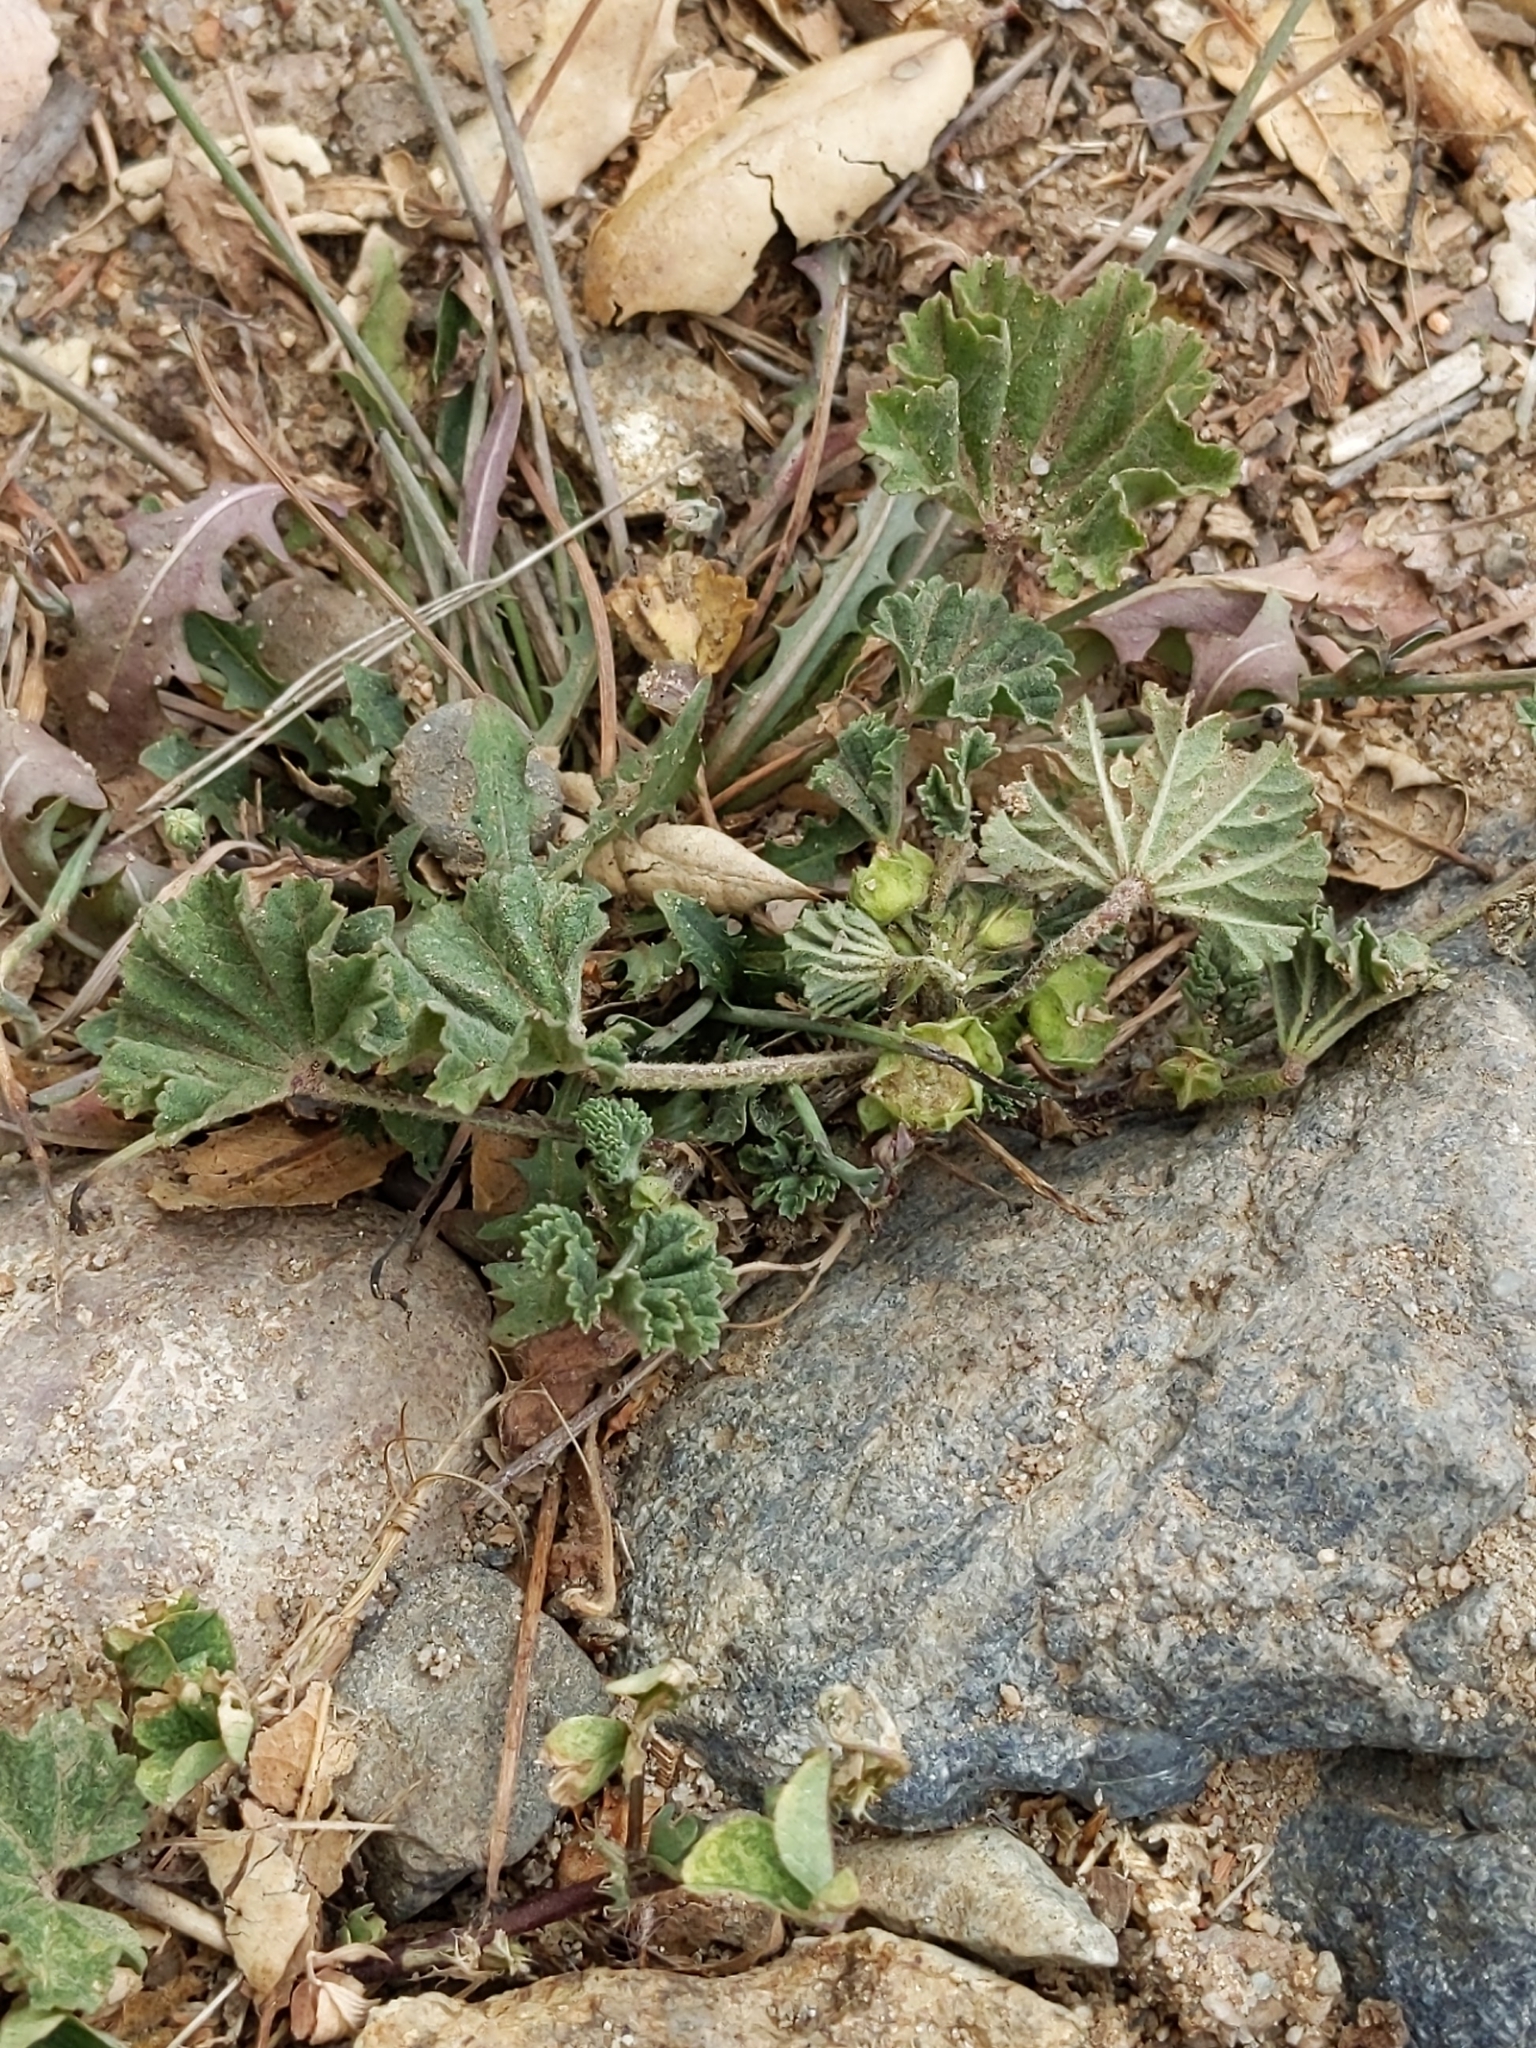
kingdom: Plantae
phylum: Tracheophyta
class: Magnoliopsida
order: Malvales
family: Malvaceae
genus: Malva
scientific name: Malva parviflora
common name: Least mallow
